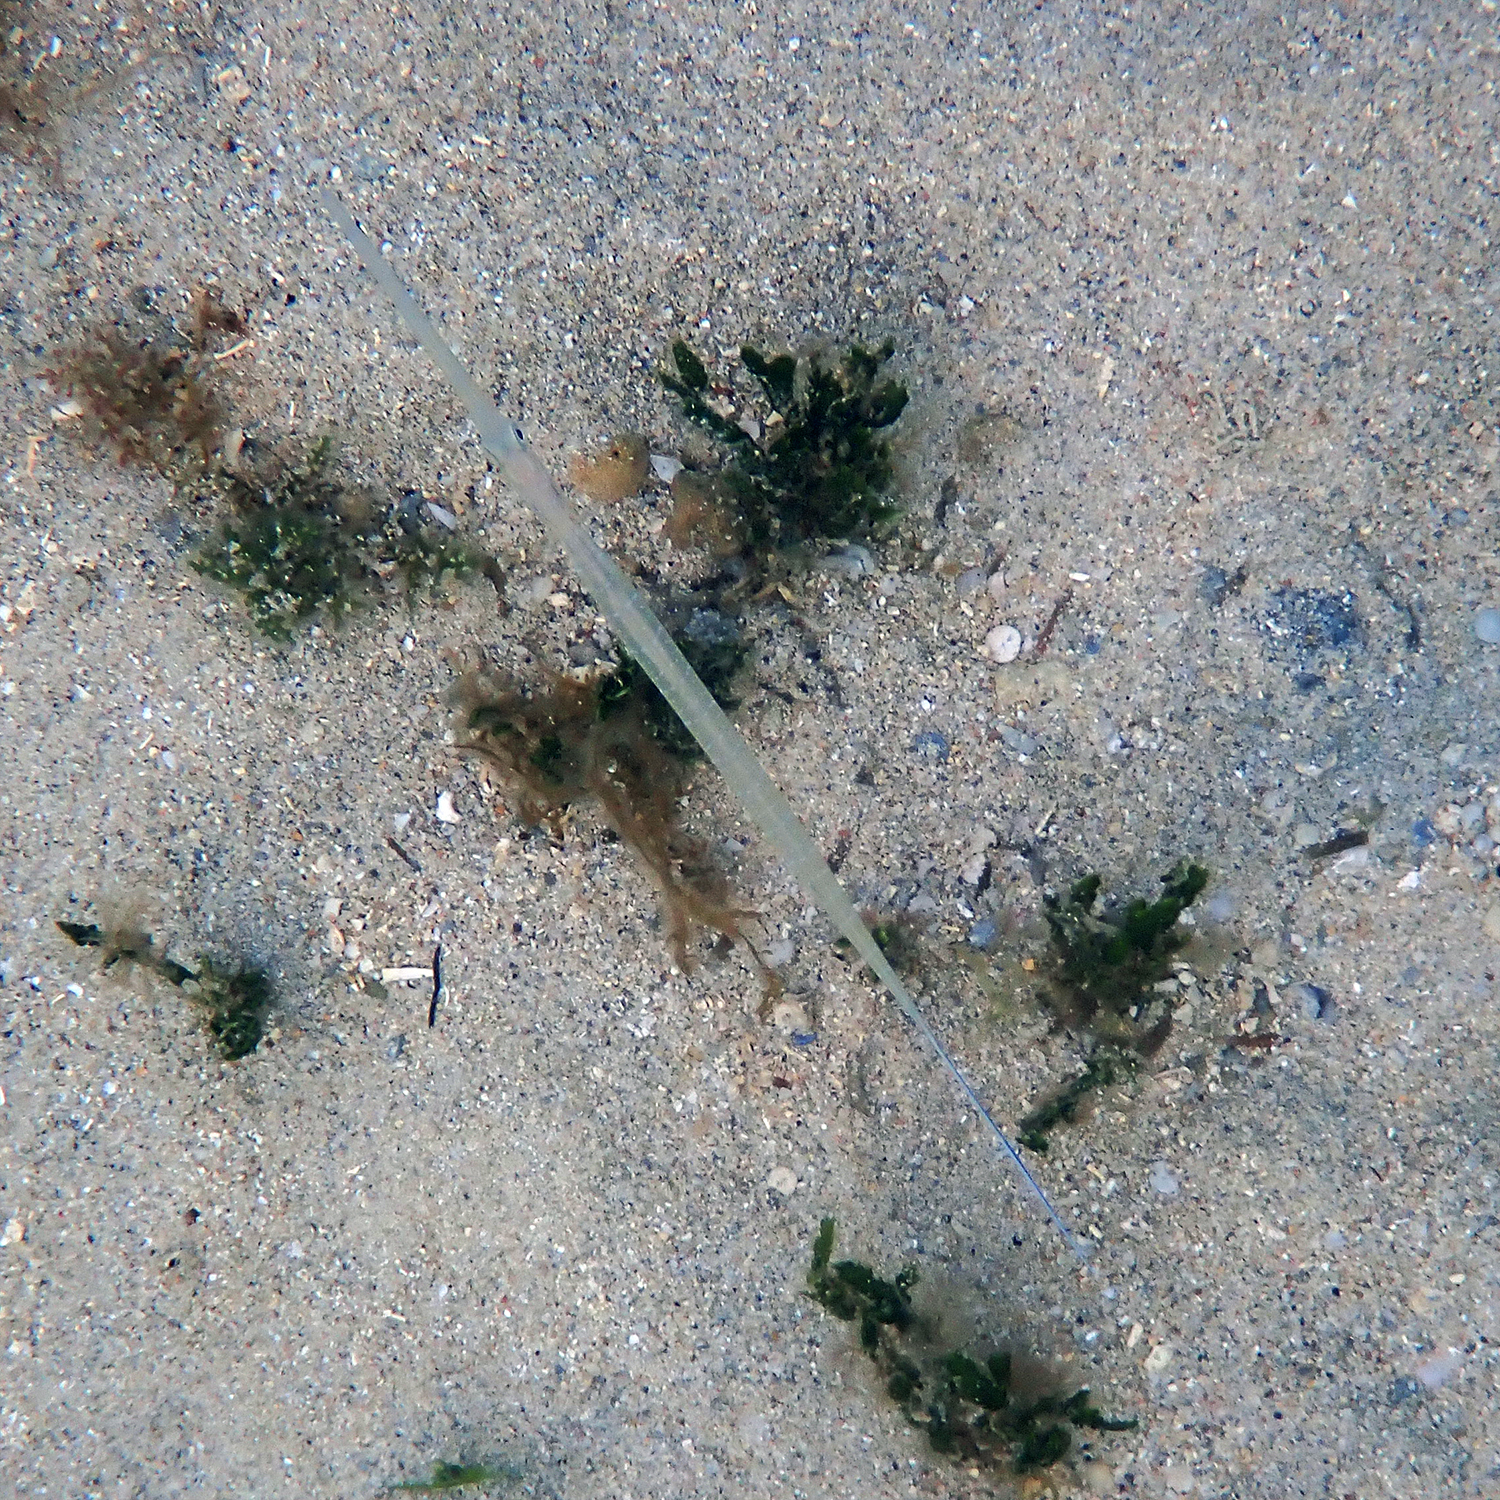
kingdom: Animalia
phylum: Chordata
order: Syngnathiformes
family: Fistulariidae
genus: Fistularia
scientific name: Fistularia commersonii
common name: Bluespotted cornetfish
